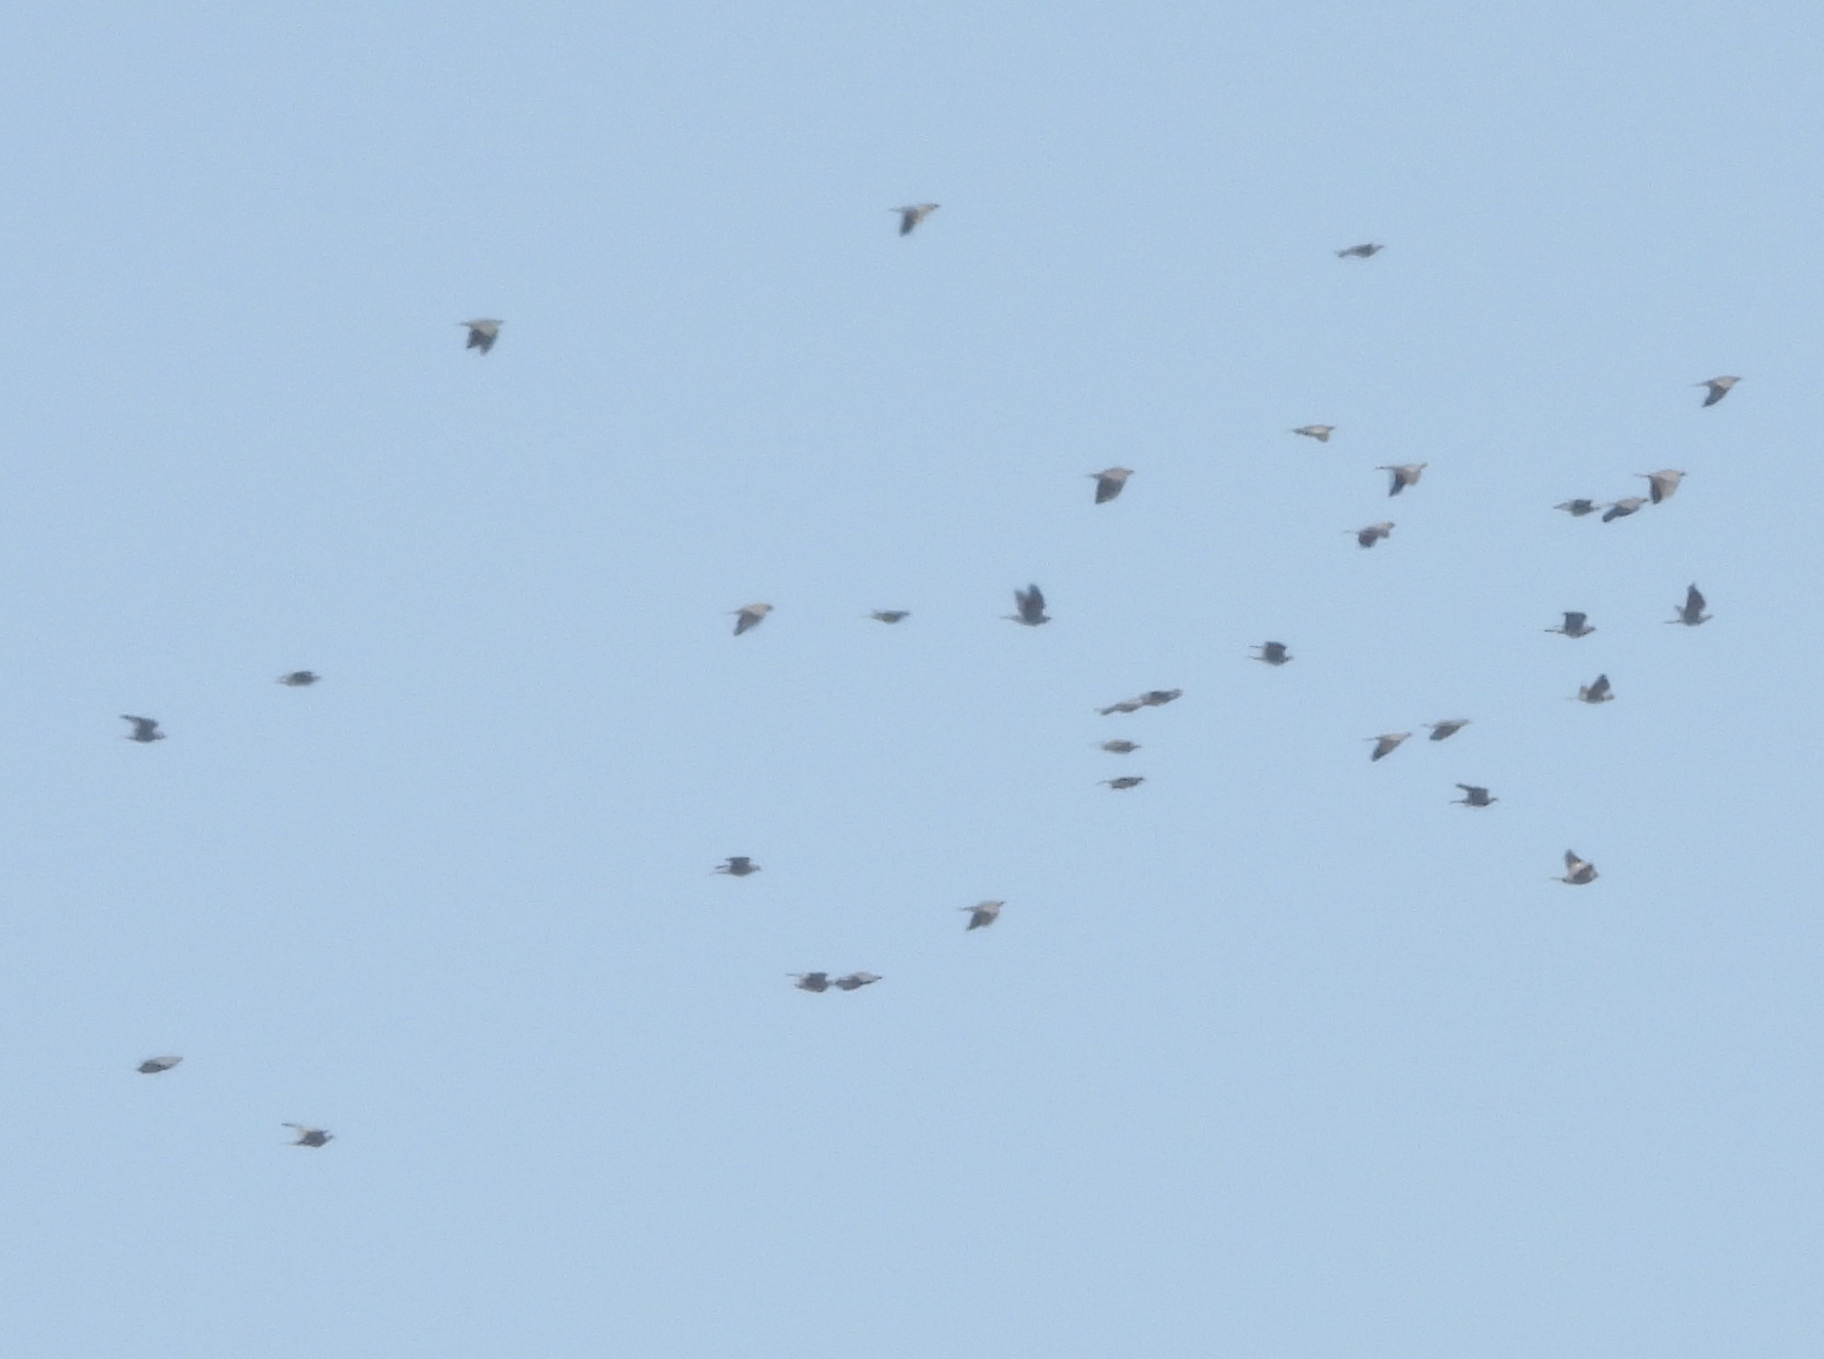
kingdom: Animalia
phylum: Chordata
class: Aves
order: Columbiformes
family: Columbidae
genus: Patagioenas
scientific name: Patagioenas fasciata
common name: Band-tailed pigeon
